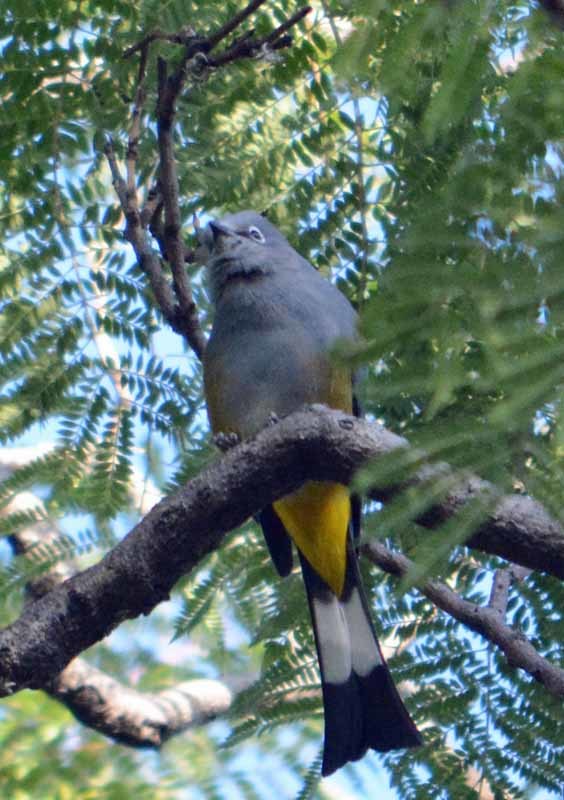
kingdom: Animalia
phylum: Chordata
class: Aves
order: Passeriformes
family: Ptilogonatidae
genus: Ptilogonys
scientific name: Ptilogonys cinereus
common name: Gray silky-flycatcher
